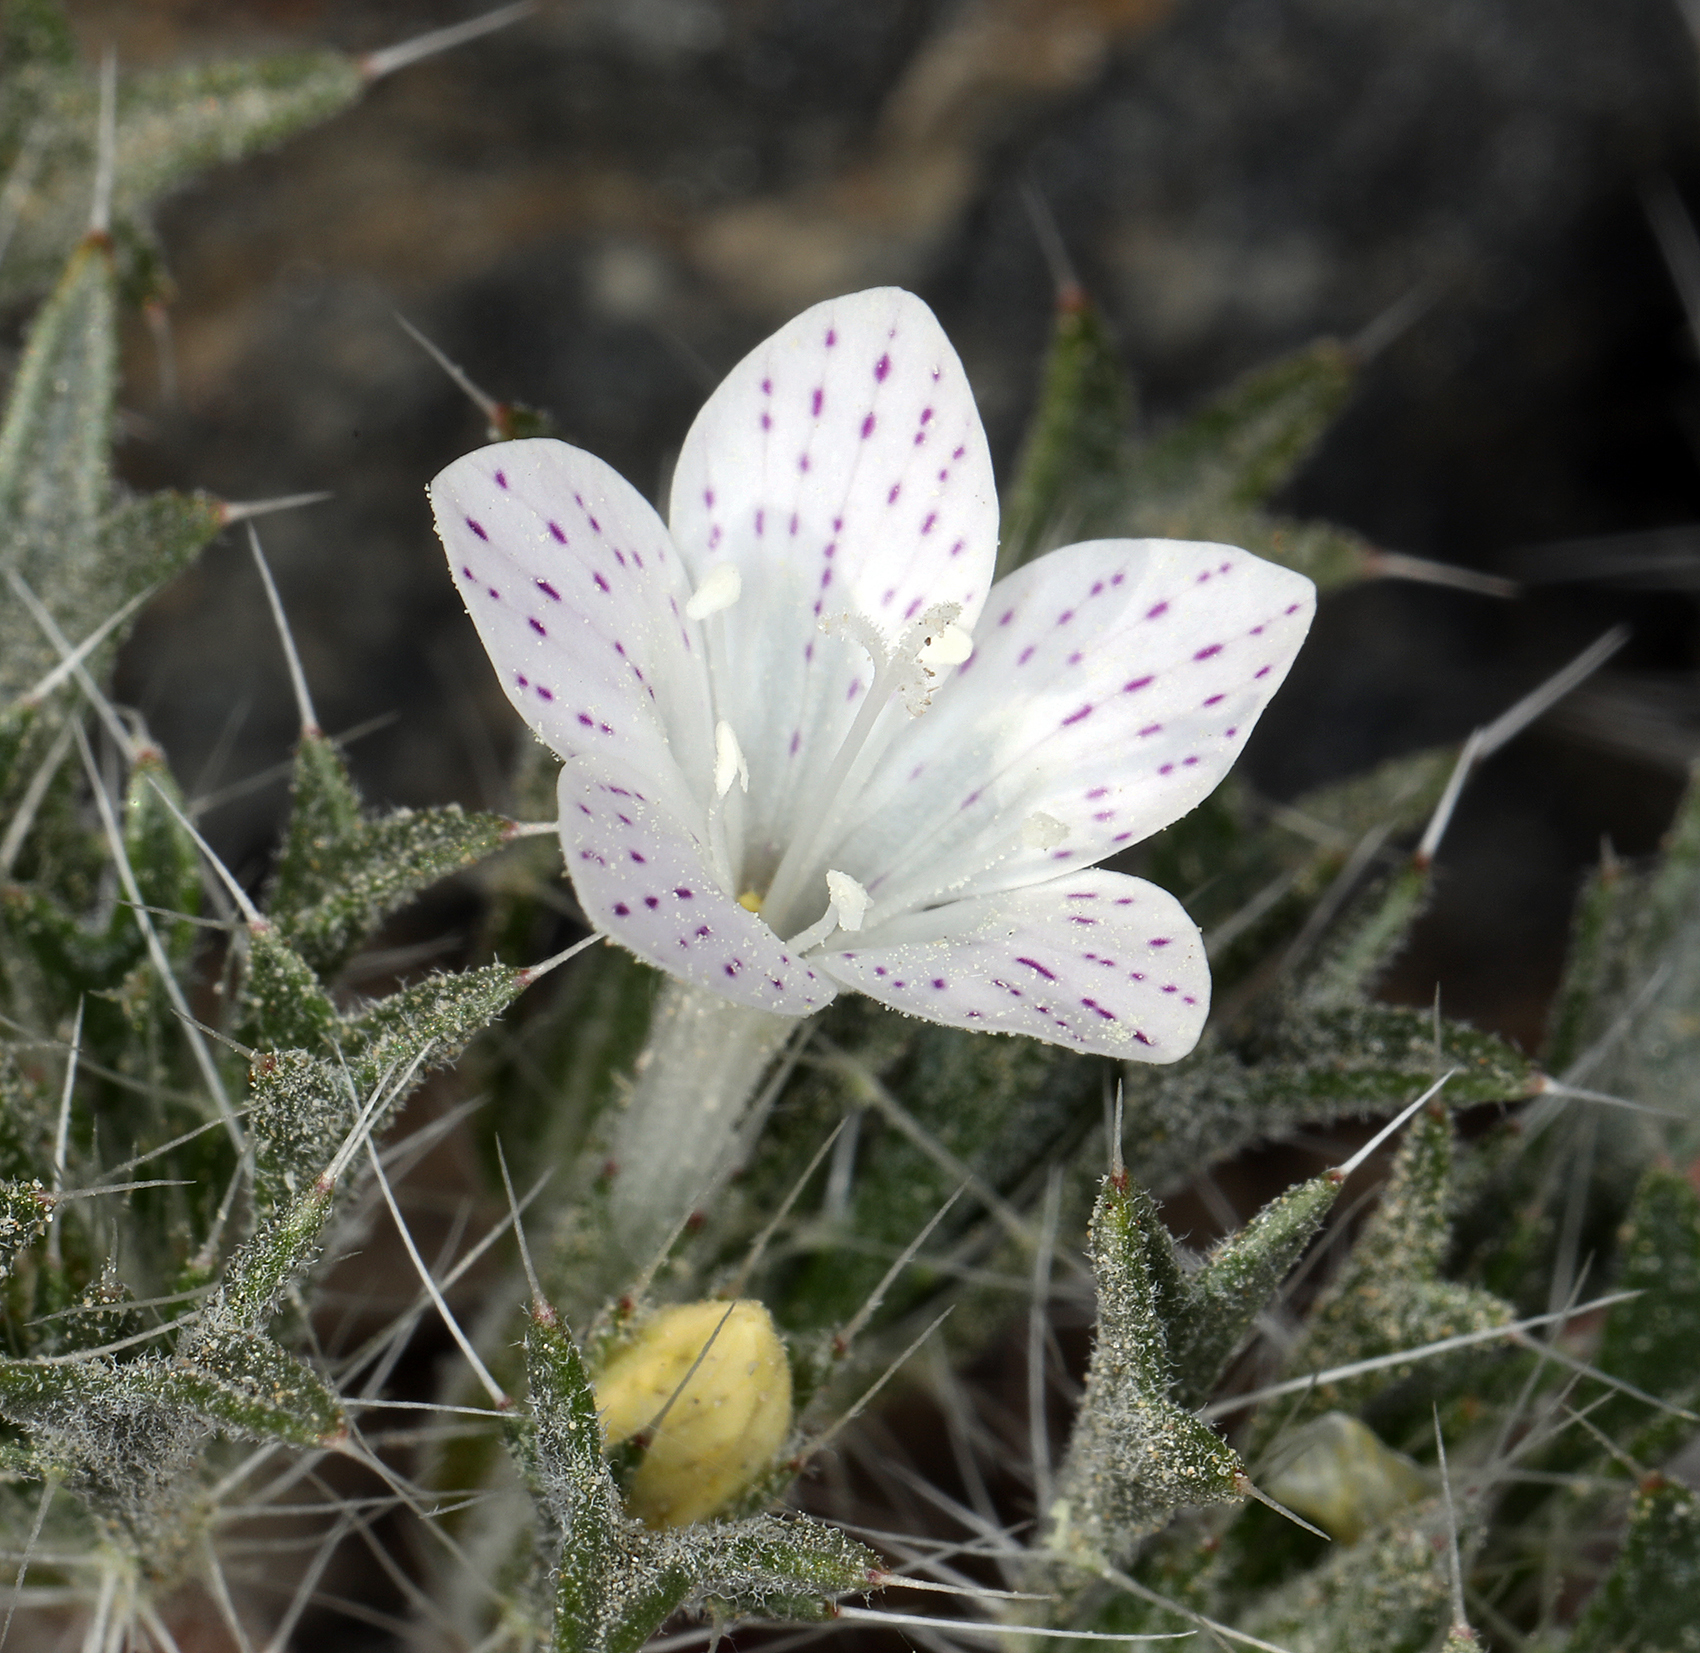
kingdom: Plantae
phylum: Tracheophyta
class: Magnoliopsida
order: Ericales
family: Polemoniaceae
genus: Langloisia
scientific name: Langloisia setosissima
